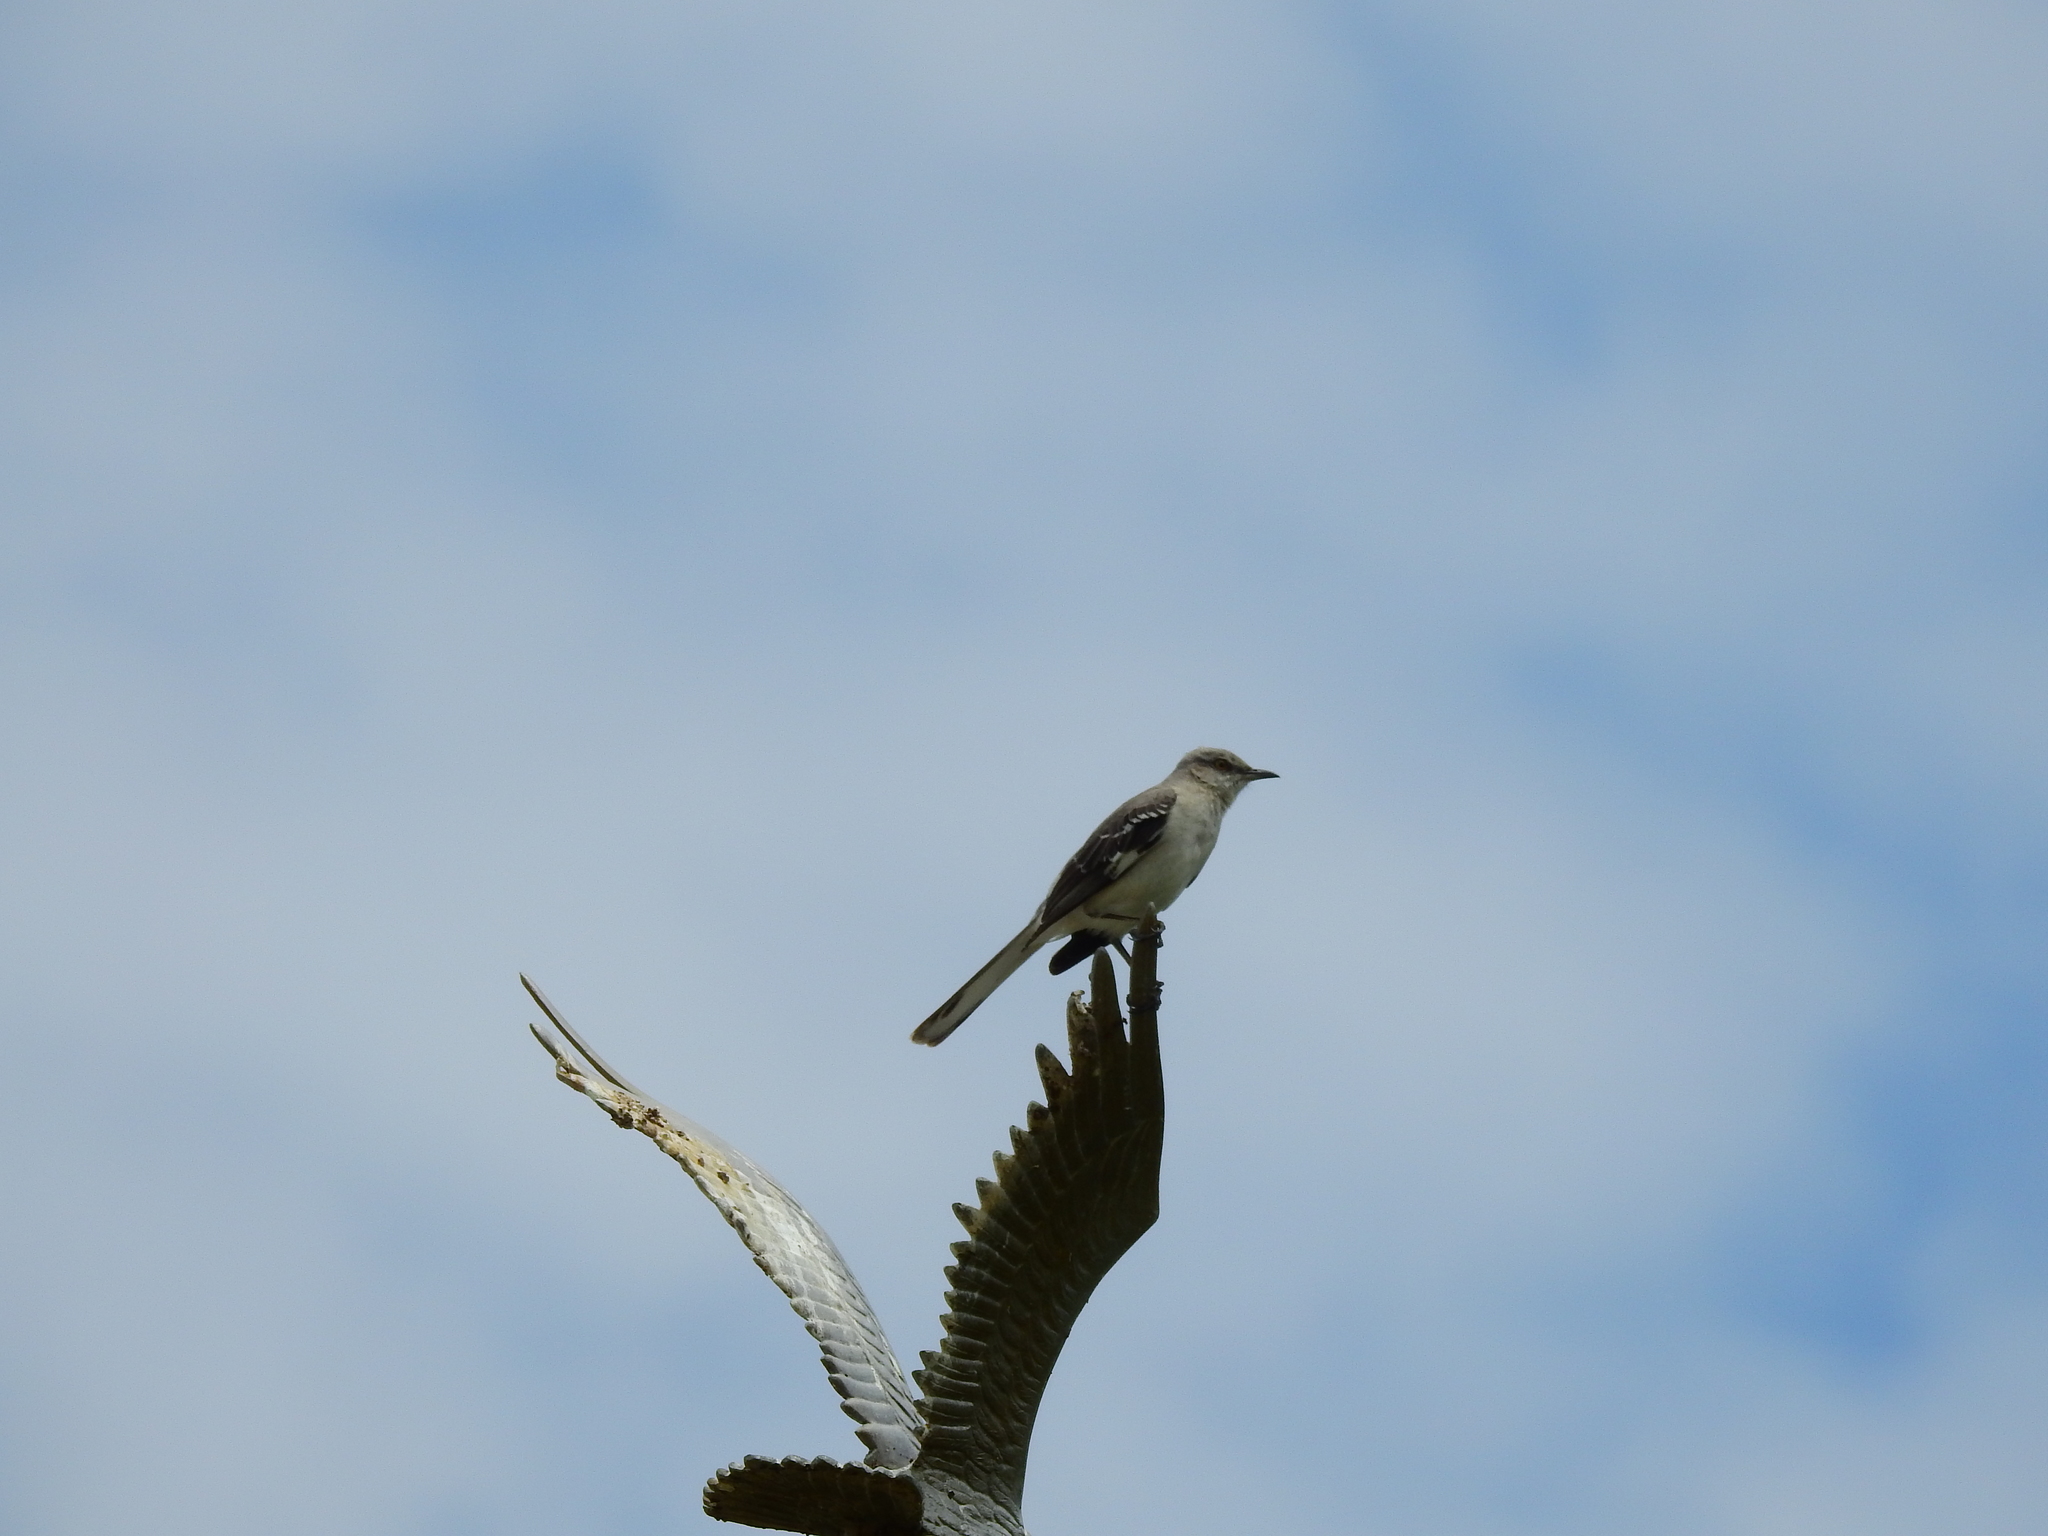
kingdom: Animalia
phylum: Chordata
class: Aves
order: Passeriformes
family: Mimidae
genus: Mimus
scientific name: Mimus polyglottos
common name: Northern mockingbird
